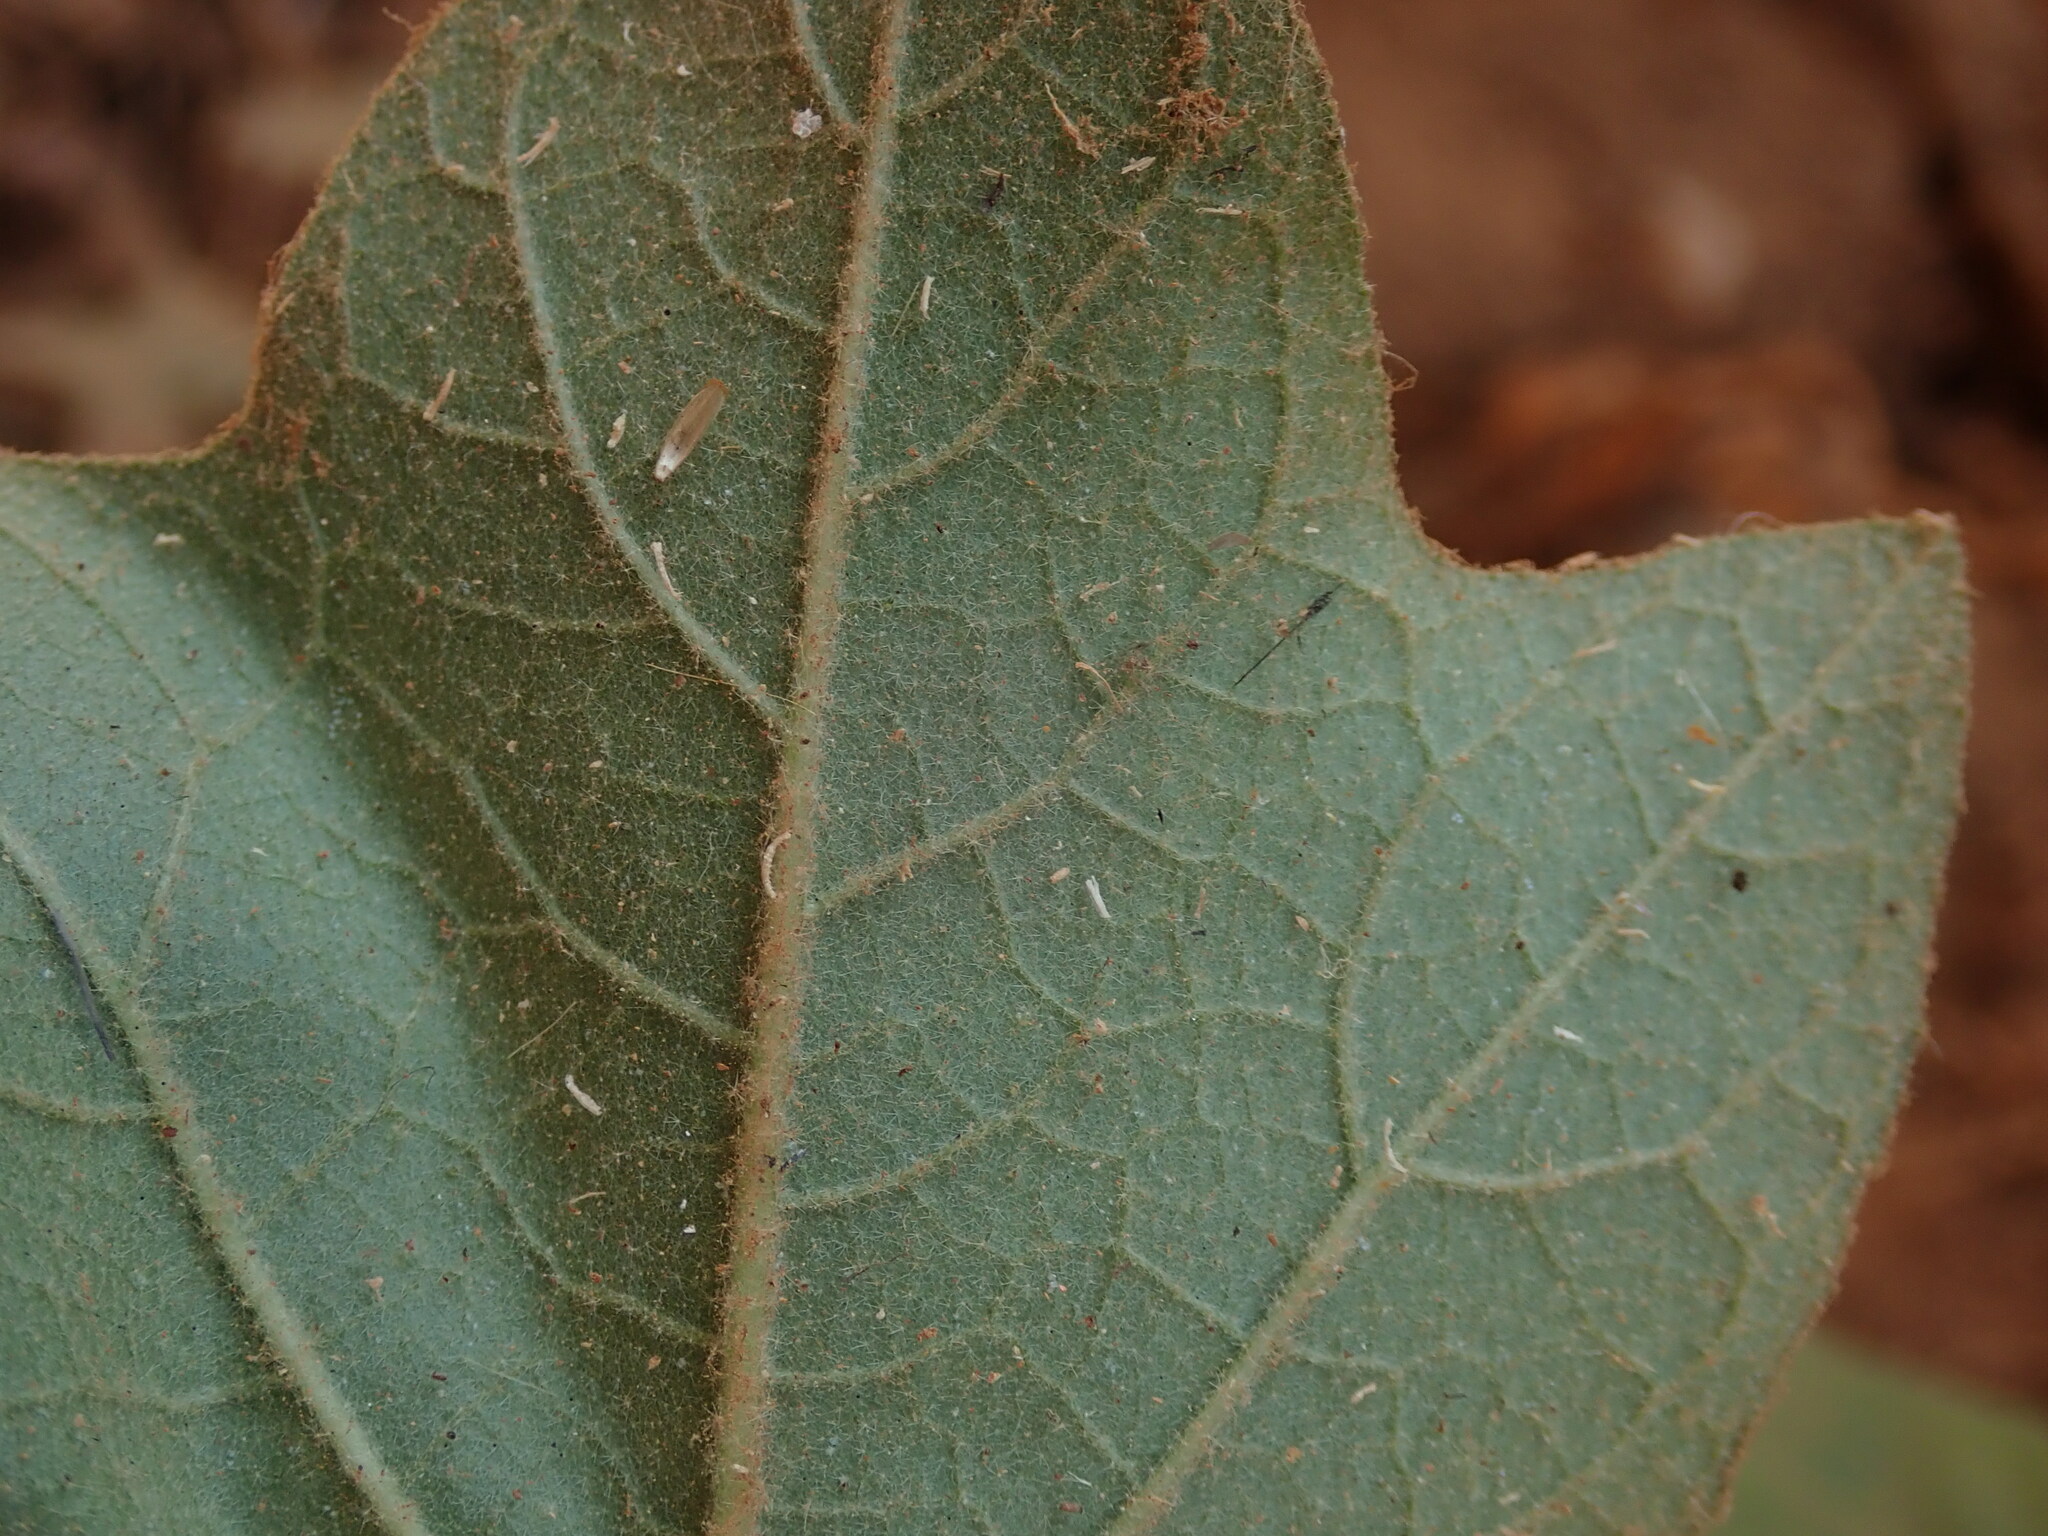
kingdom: Plantae
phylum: Tracheophyta
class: Magnoliopsida
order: Solanales
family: Solanaceae
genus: Solanum
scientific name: Solanum torvum
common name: Turkey berry
